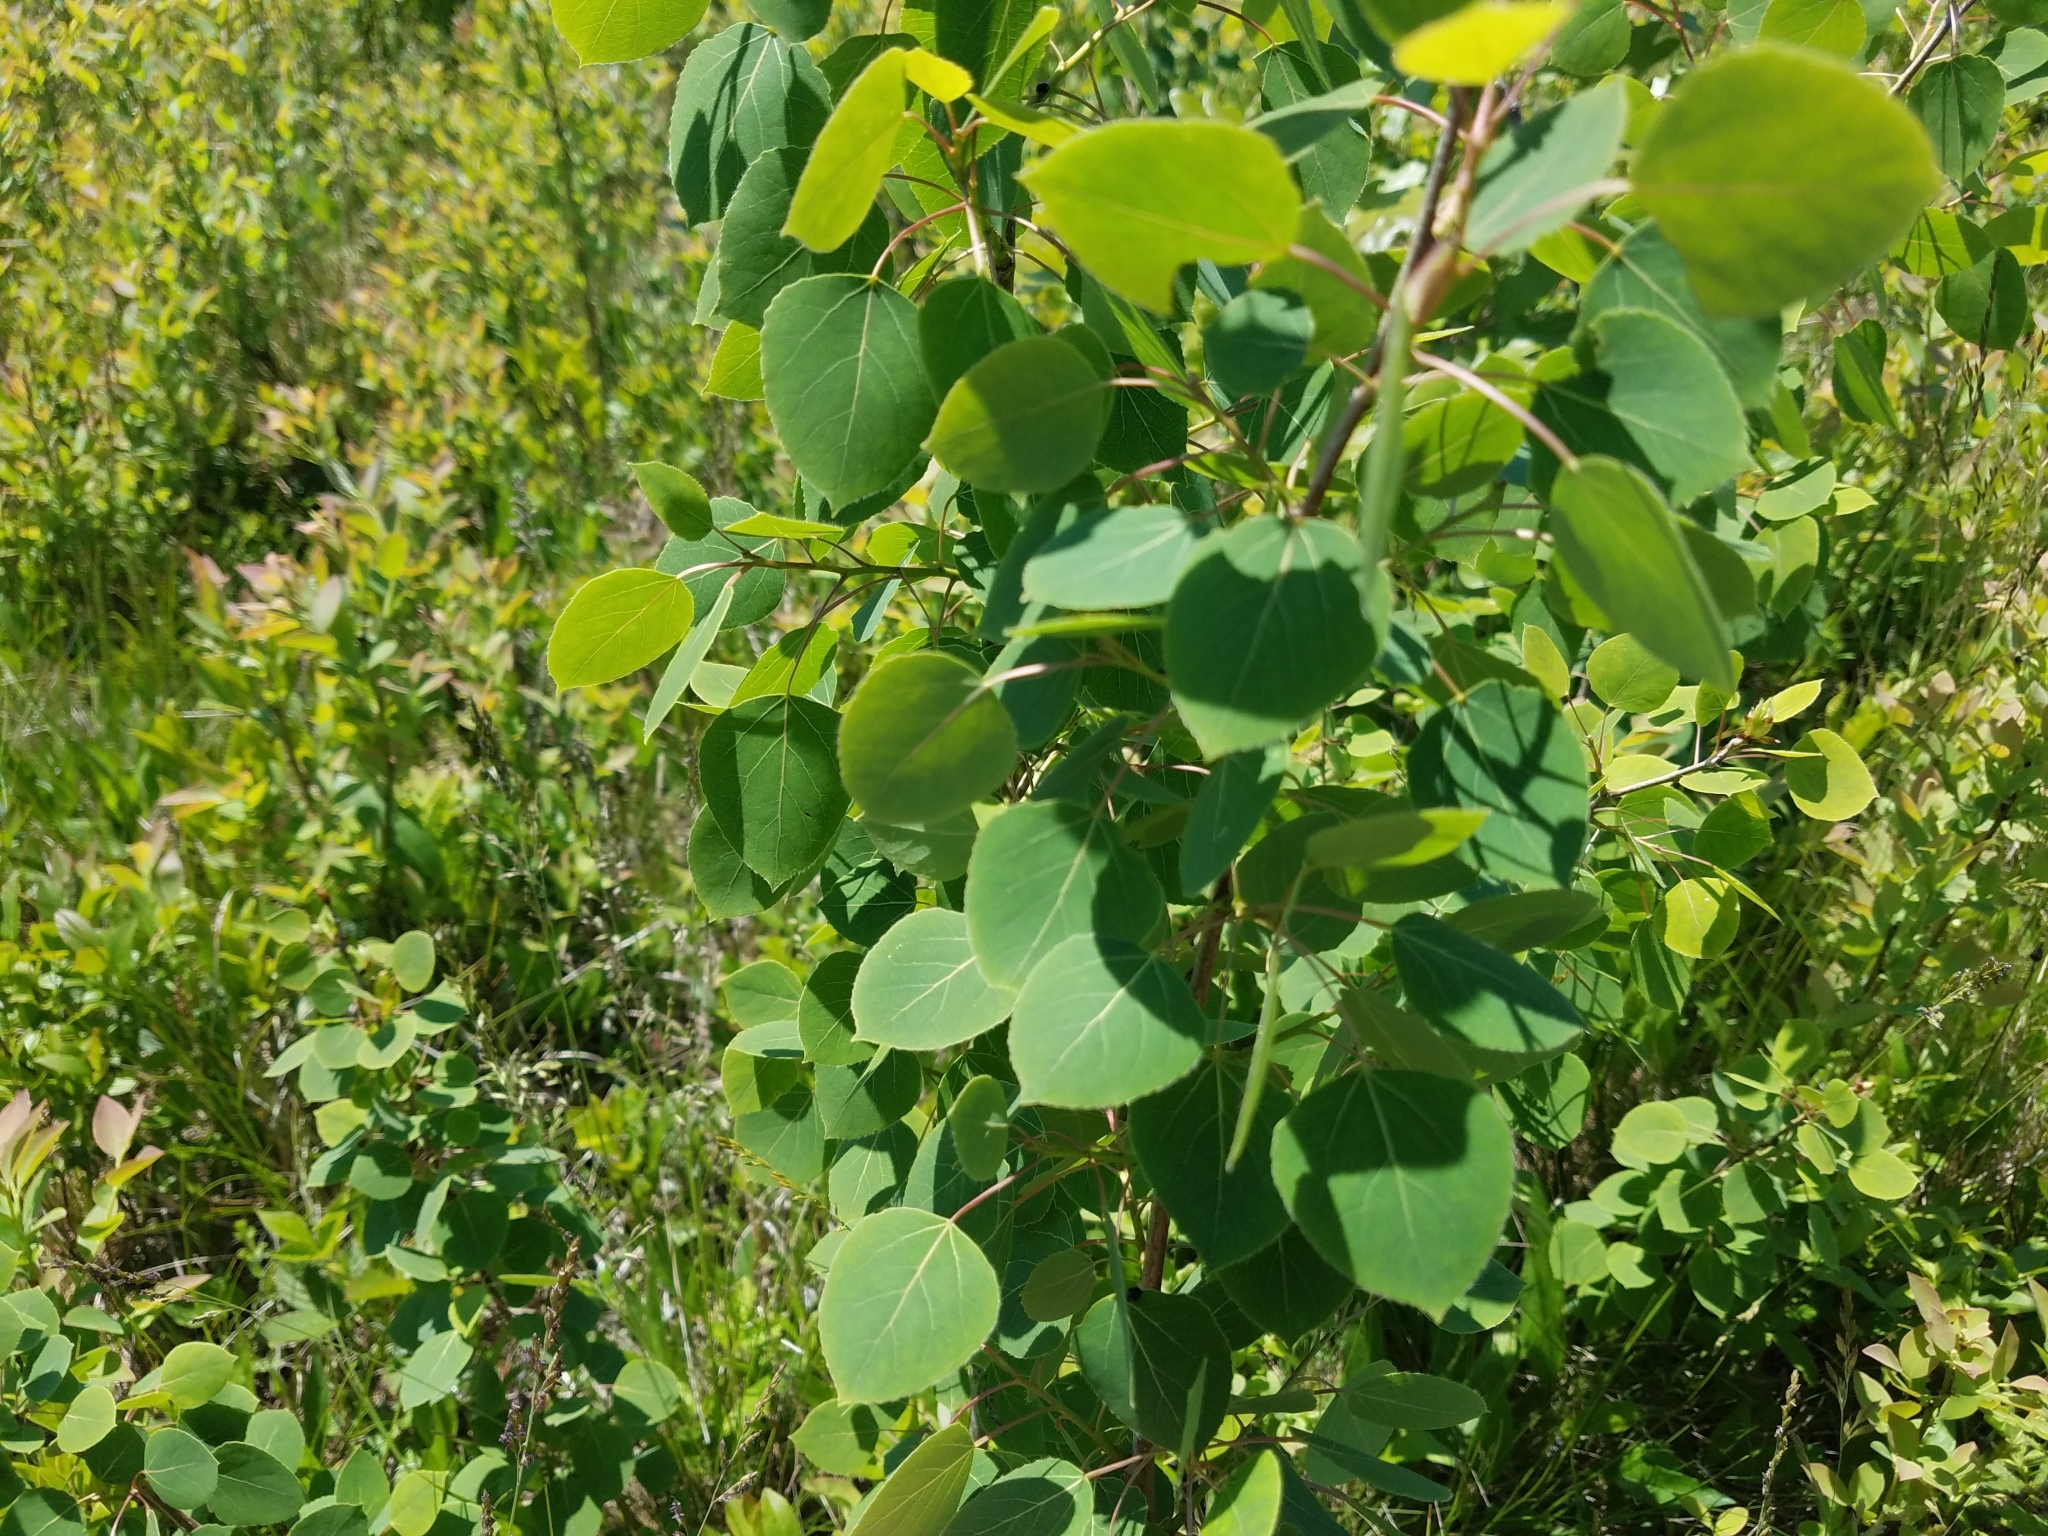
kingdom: Plantae
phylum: Tracheophyta
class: Magnoliopsida
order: Malpighiales
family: Salicaceae
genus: Populus
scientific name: Populus tremuloides
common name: Quaking aspen
